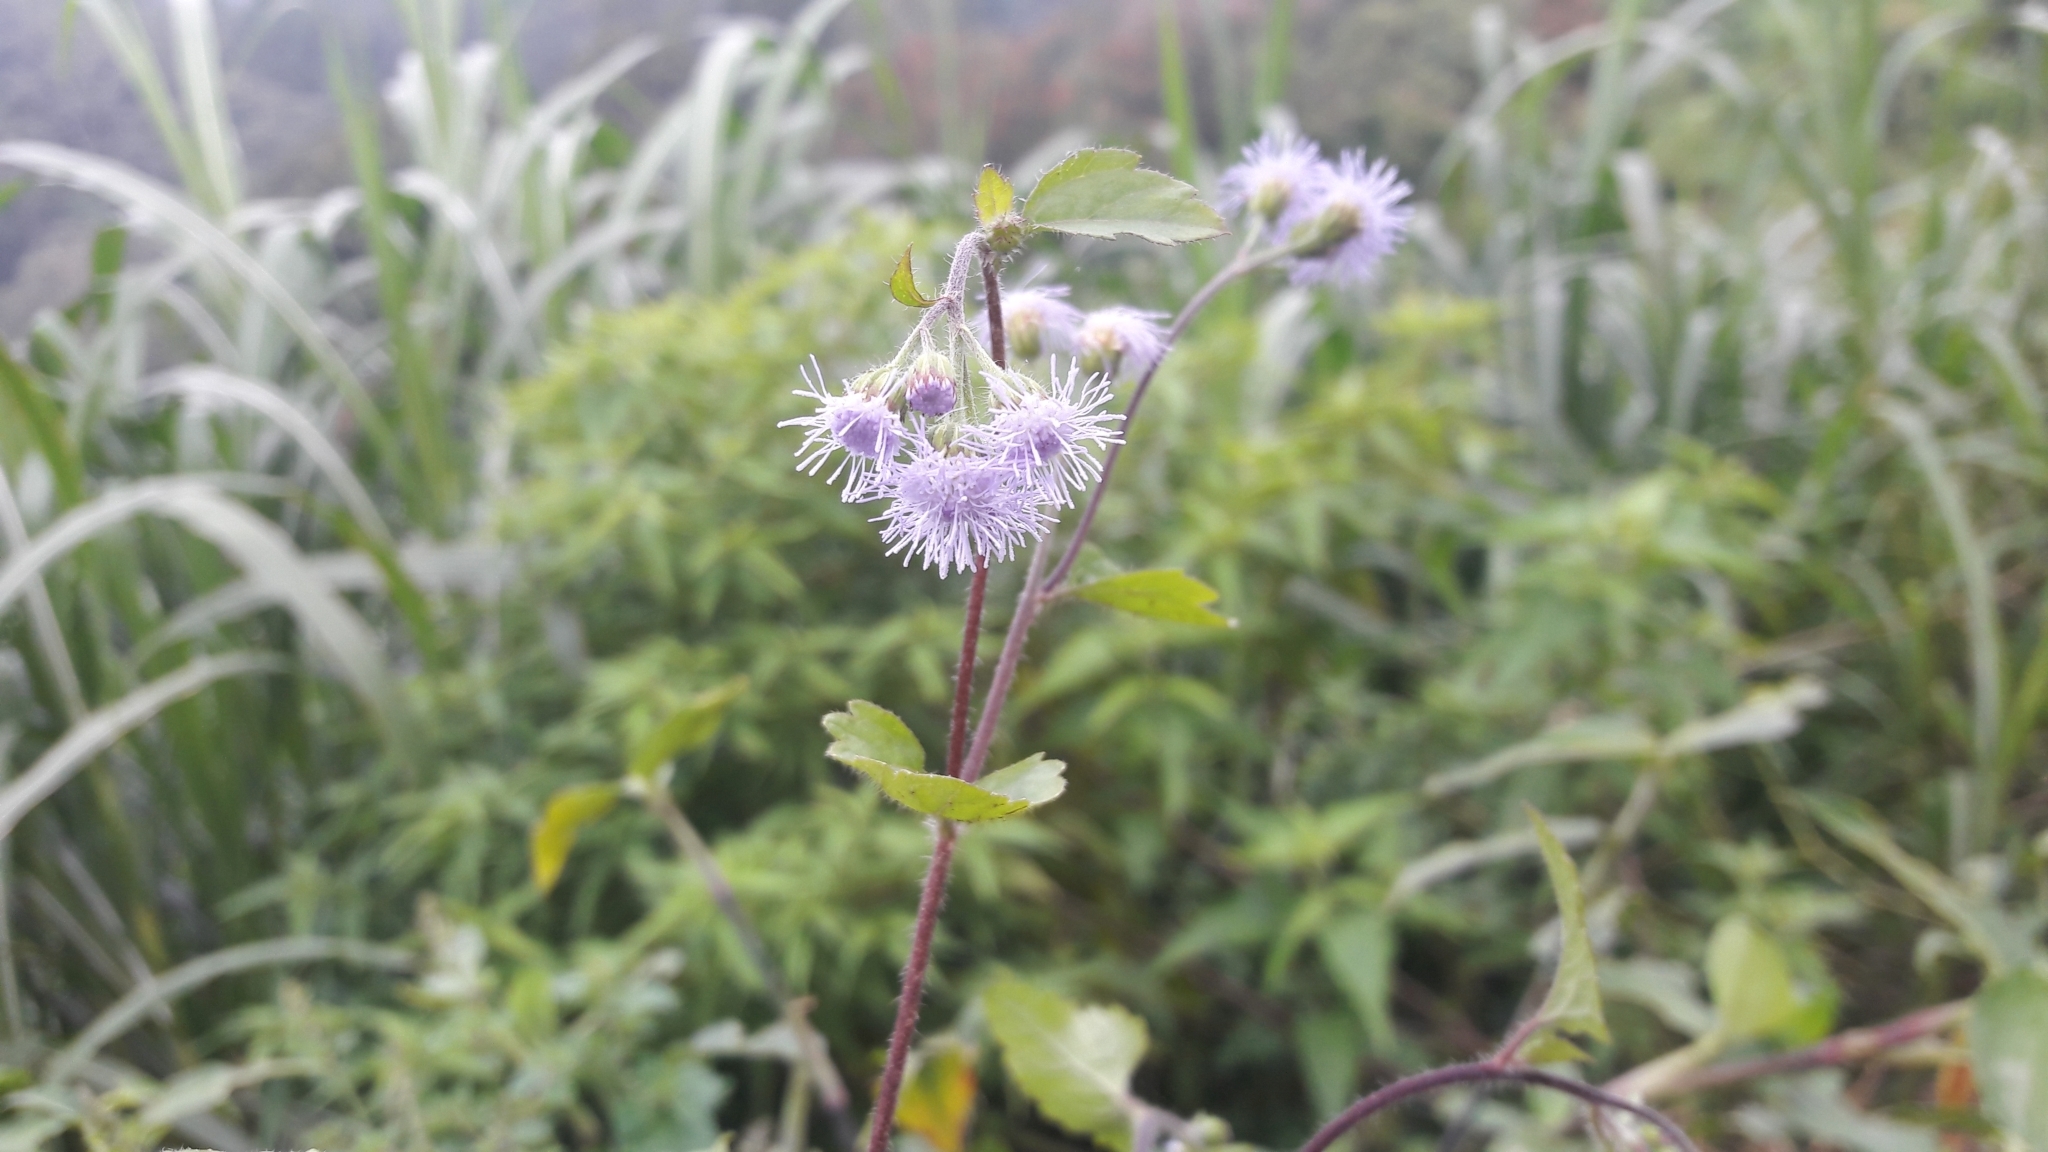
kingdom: Plantae
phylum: Tracheophyta
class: Magnoliopsida
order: Asterales
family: Asteraceae
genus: Ageratum
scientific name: Ageratum conyzoides
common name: Tropical whiteweed
